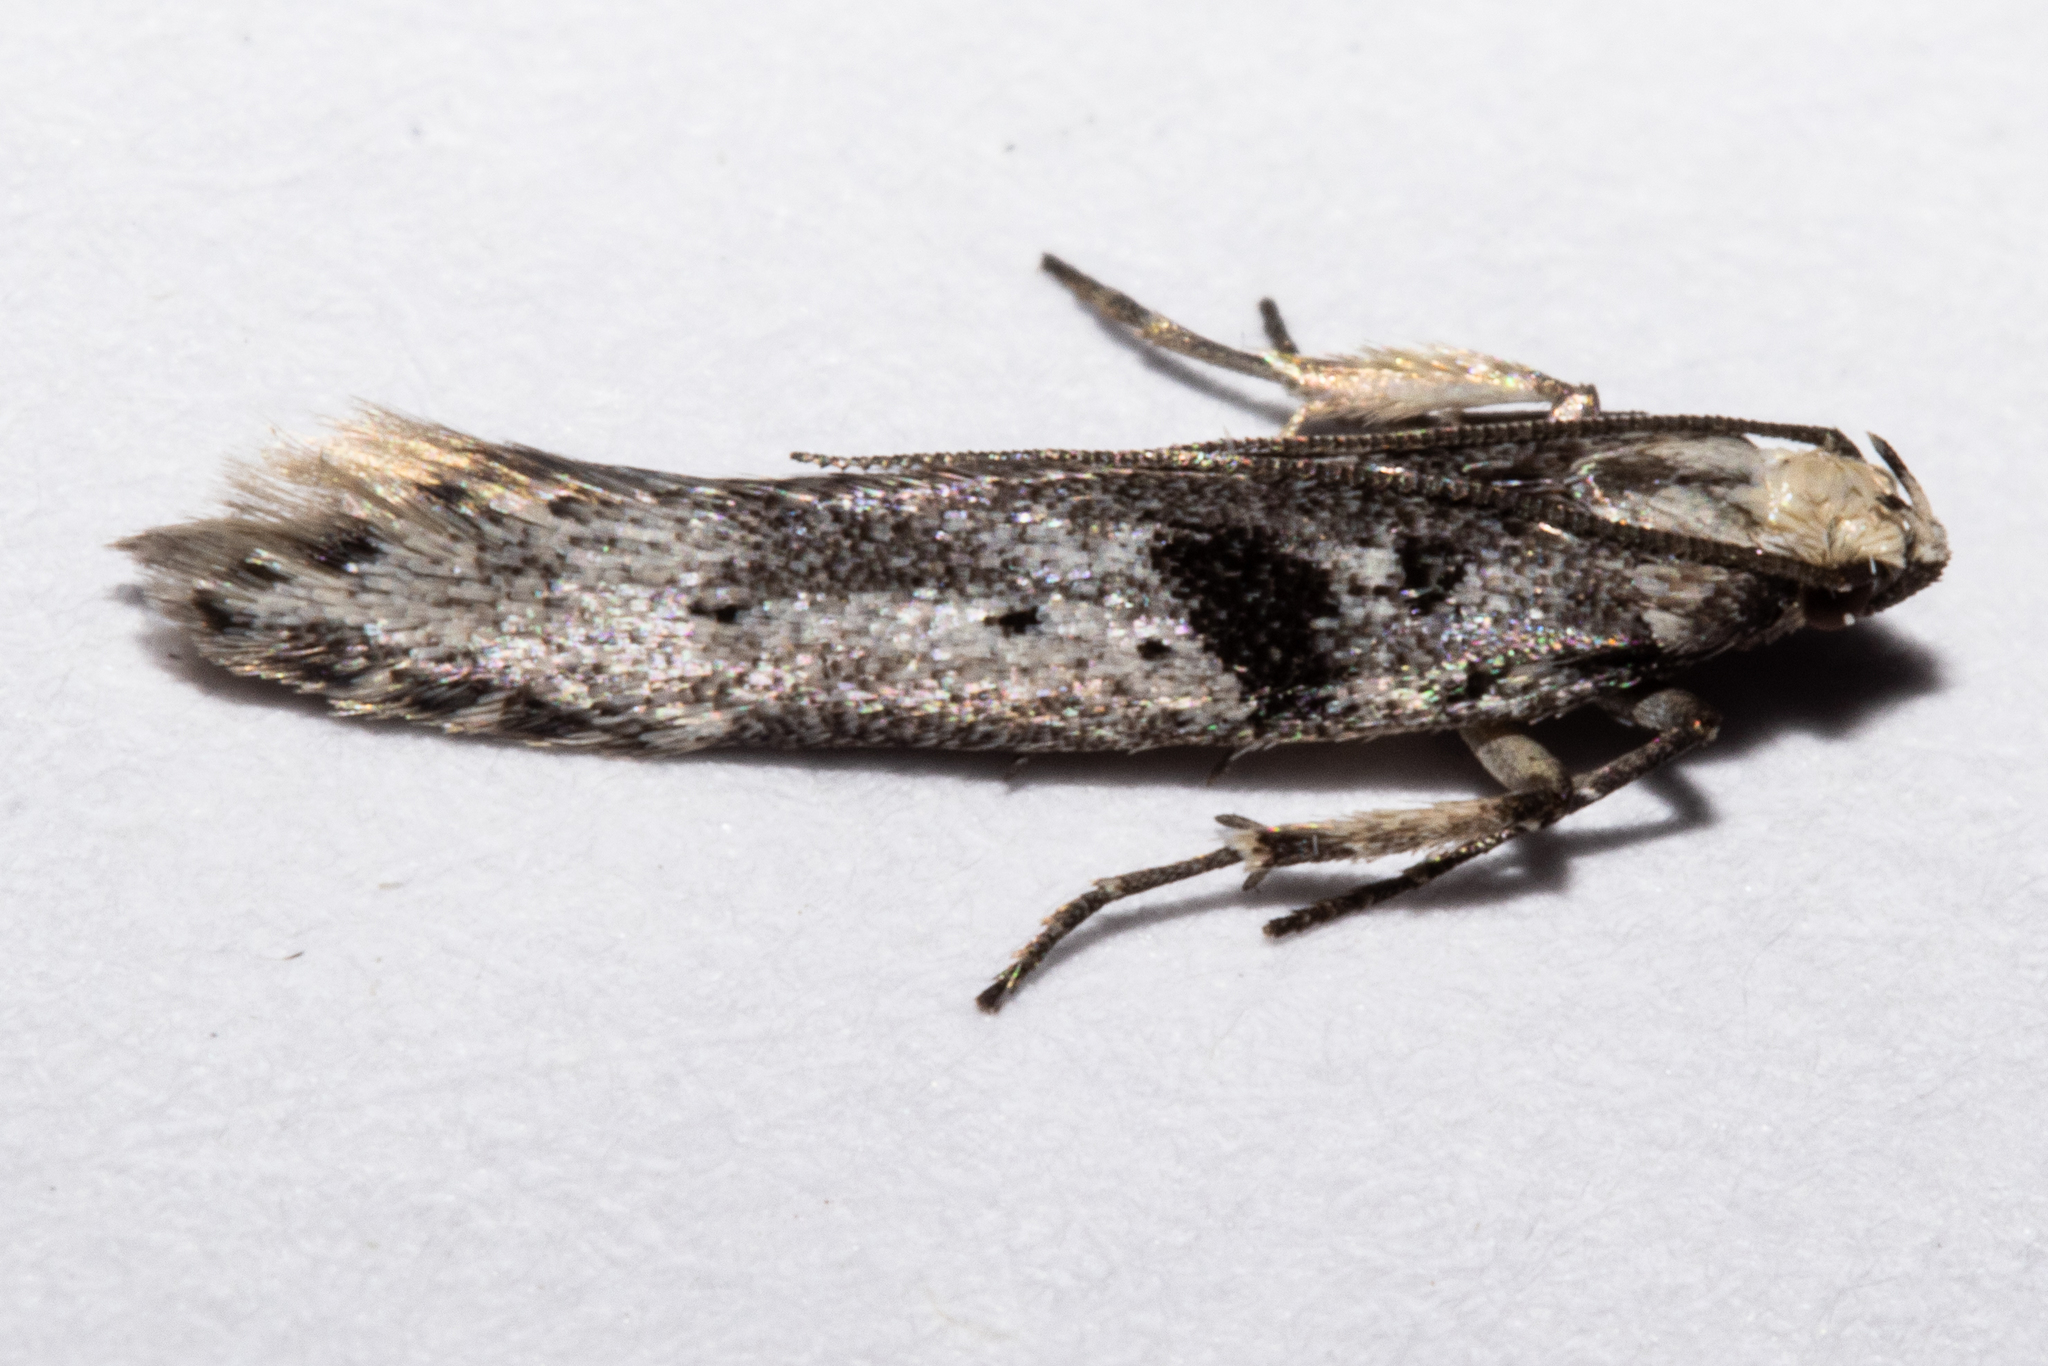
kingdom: Animalia
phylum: Arthropoda
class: Insecta
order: Lepidoptera
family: Gelechiidae
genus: Aristotelia
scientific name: Aristotelia paradesma
